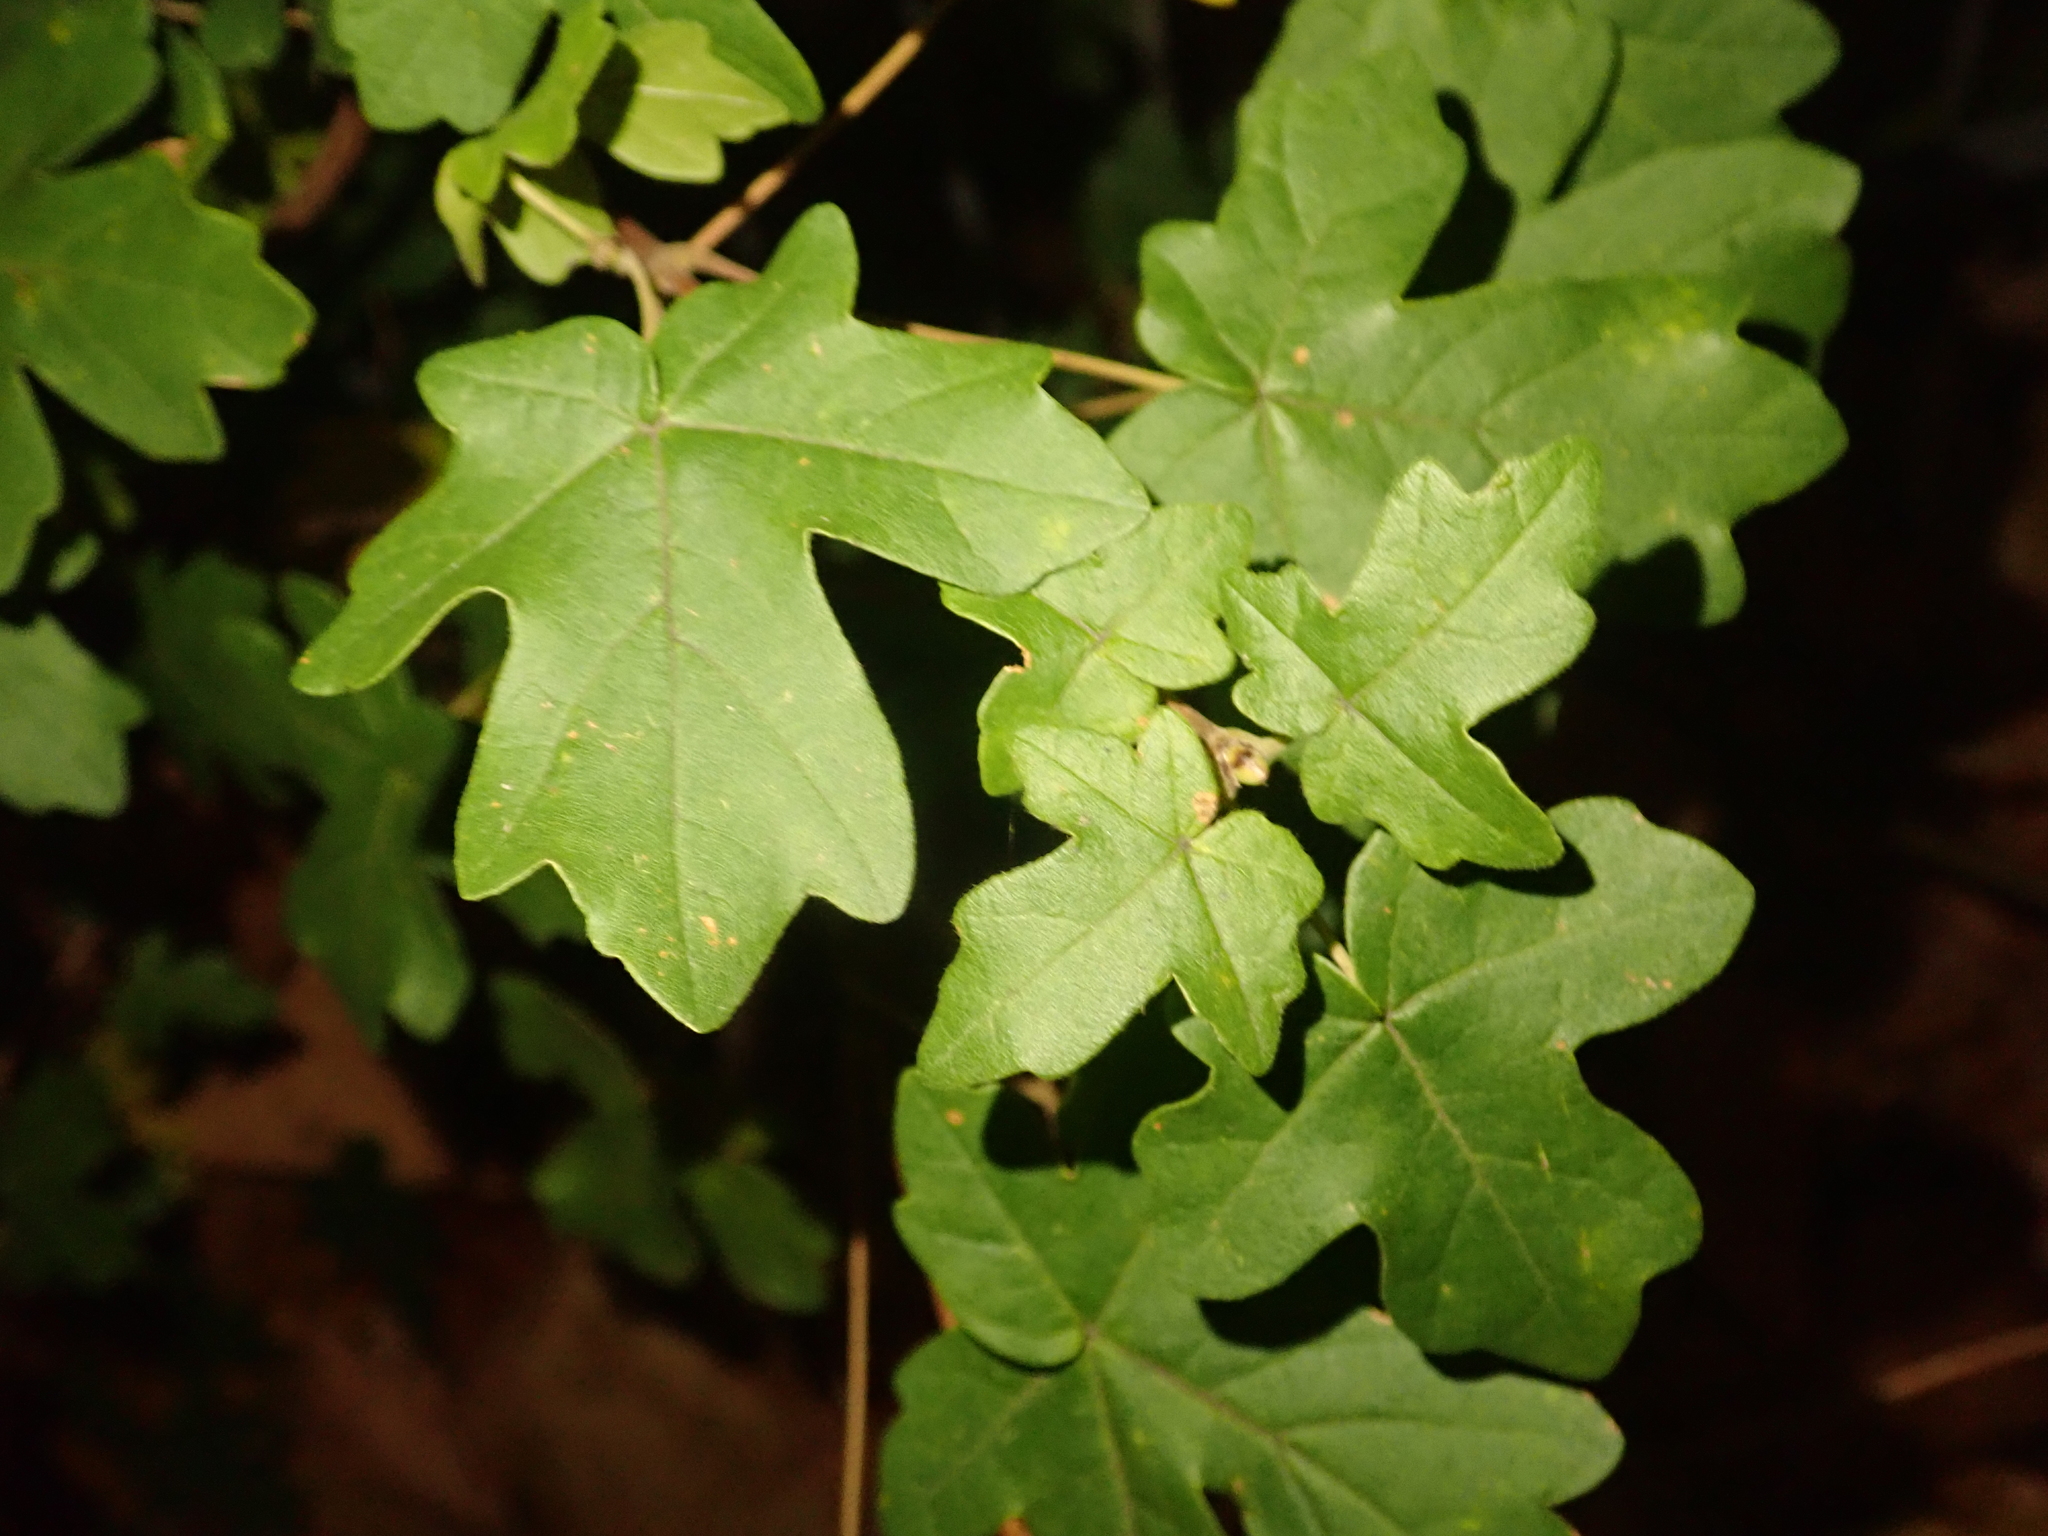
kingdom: Plantae
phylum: Tracheophyta
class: Magnoliopsida
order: Sapindales
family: Sapindaceae
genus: Acer
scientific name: Acer campestre
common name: Field maple
